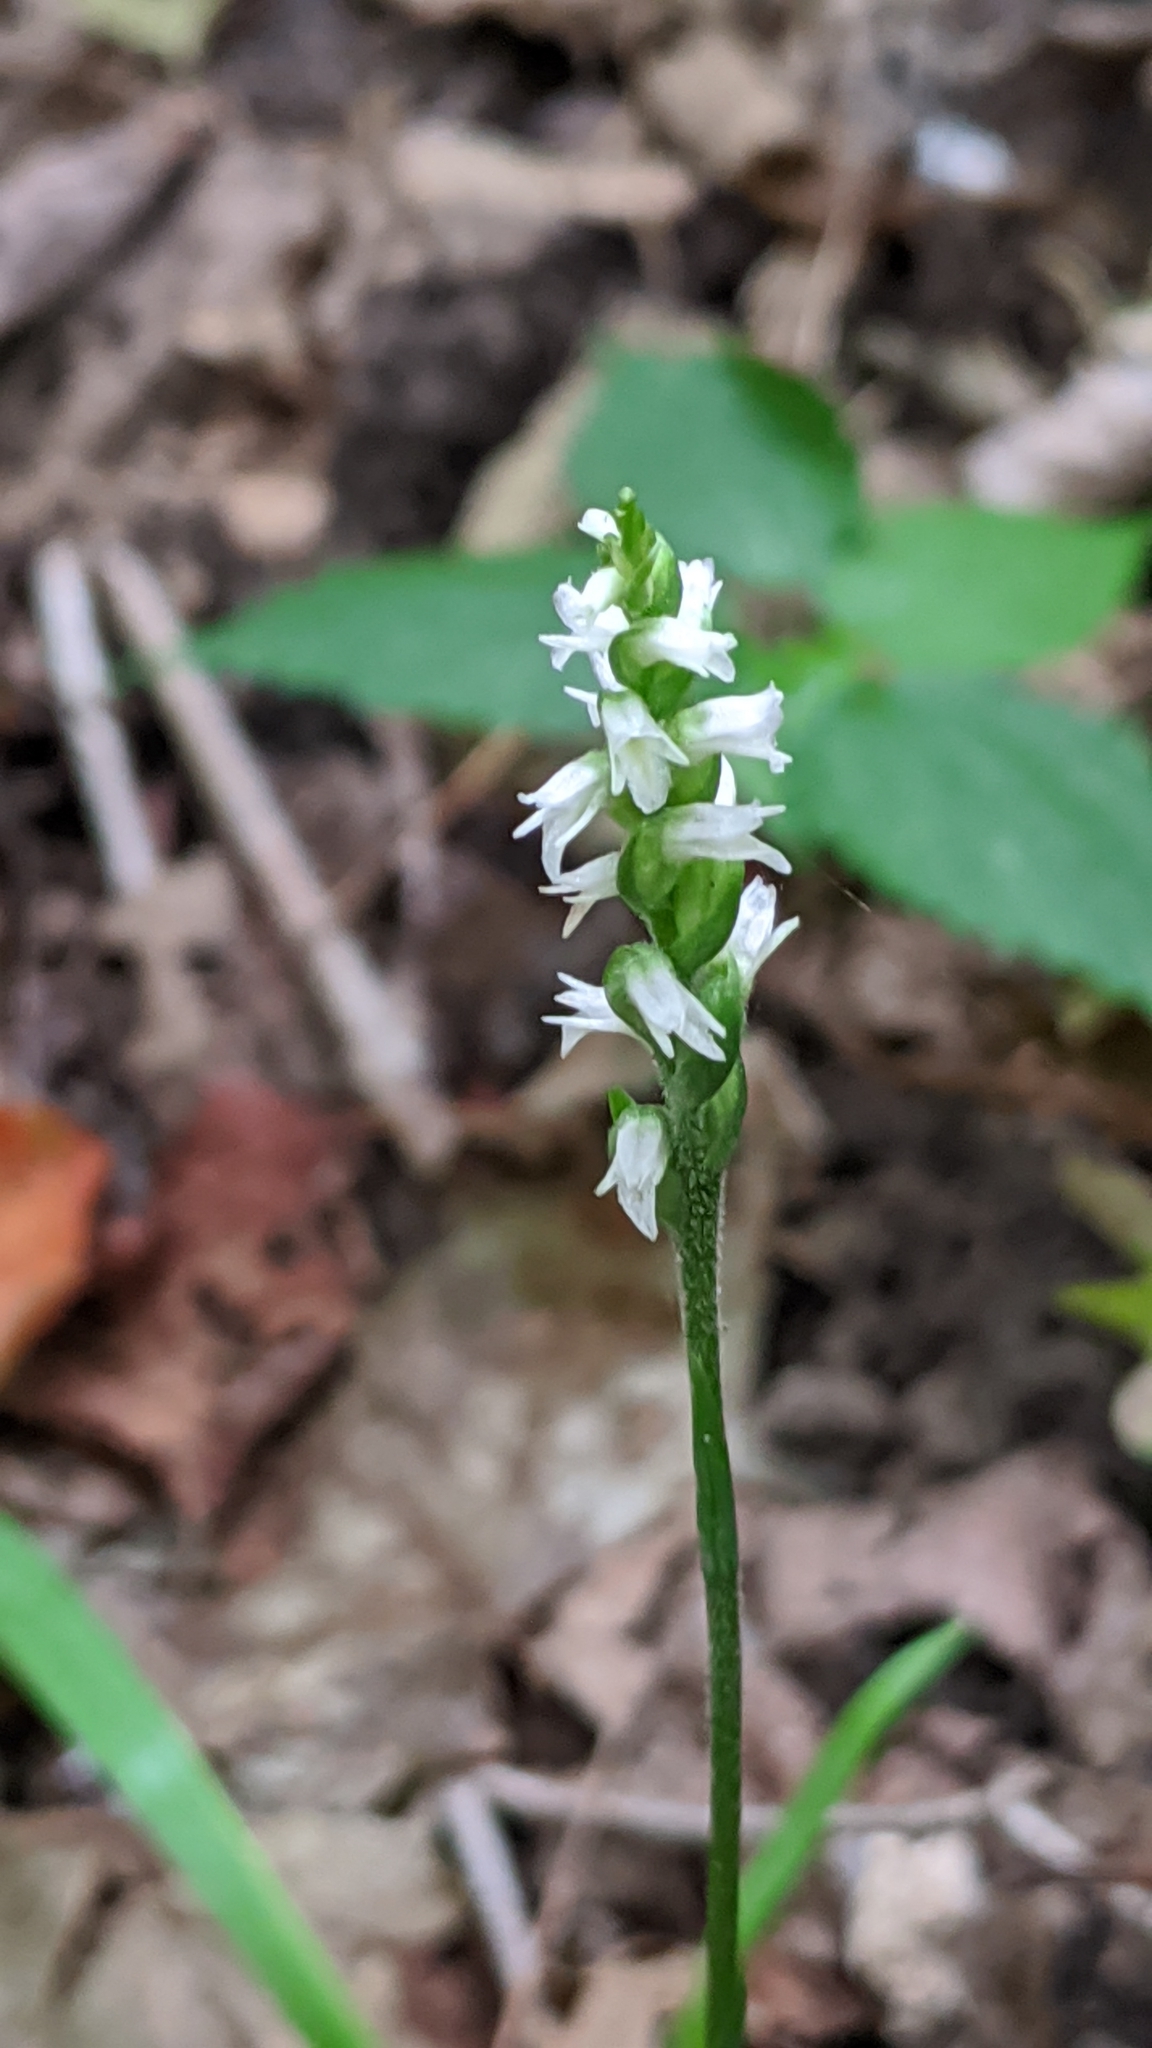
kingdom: Plantae
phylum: Tracheophyta
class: Liliopsida
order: Asparagales
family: Orchidaceae
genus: Spiranthes
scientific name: Spiranthes ovalis
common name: October ladies'-tresses
